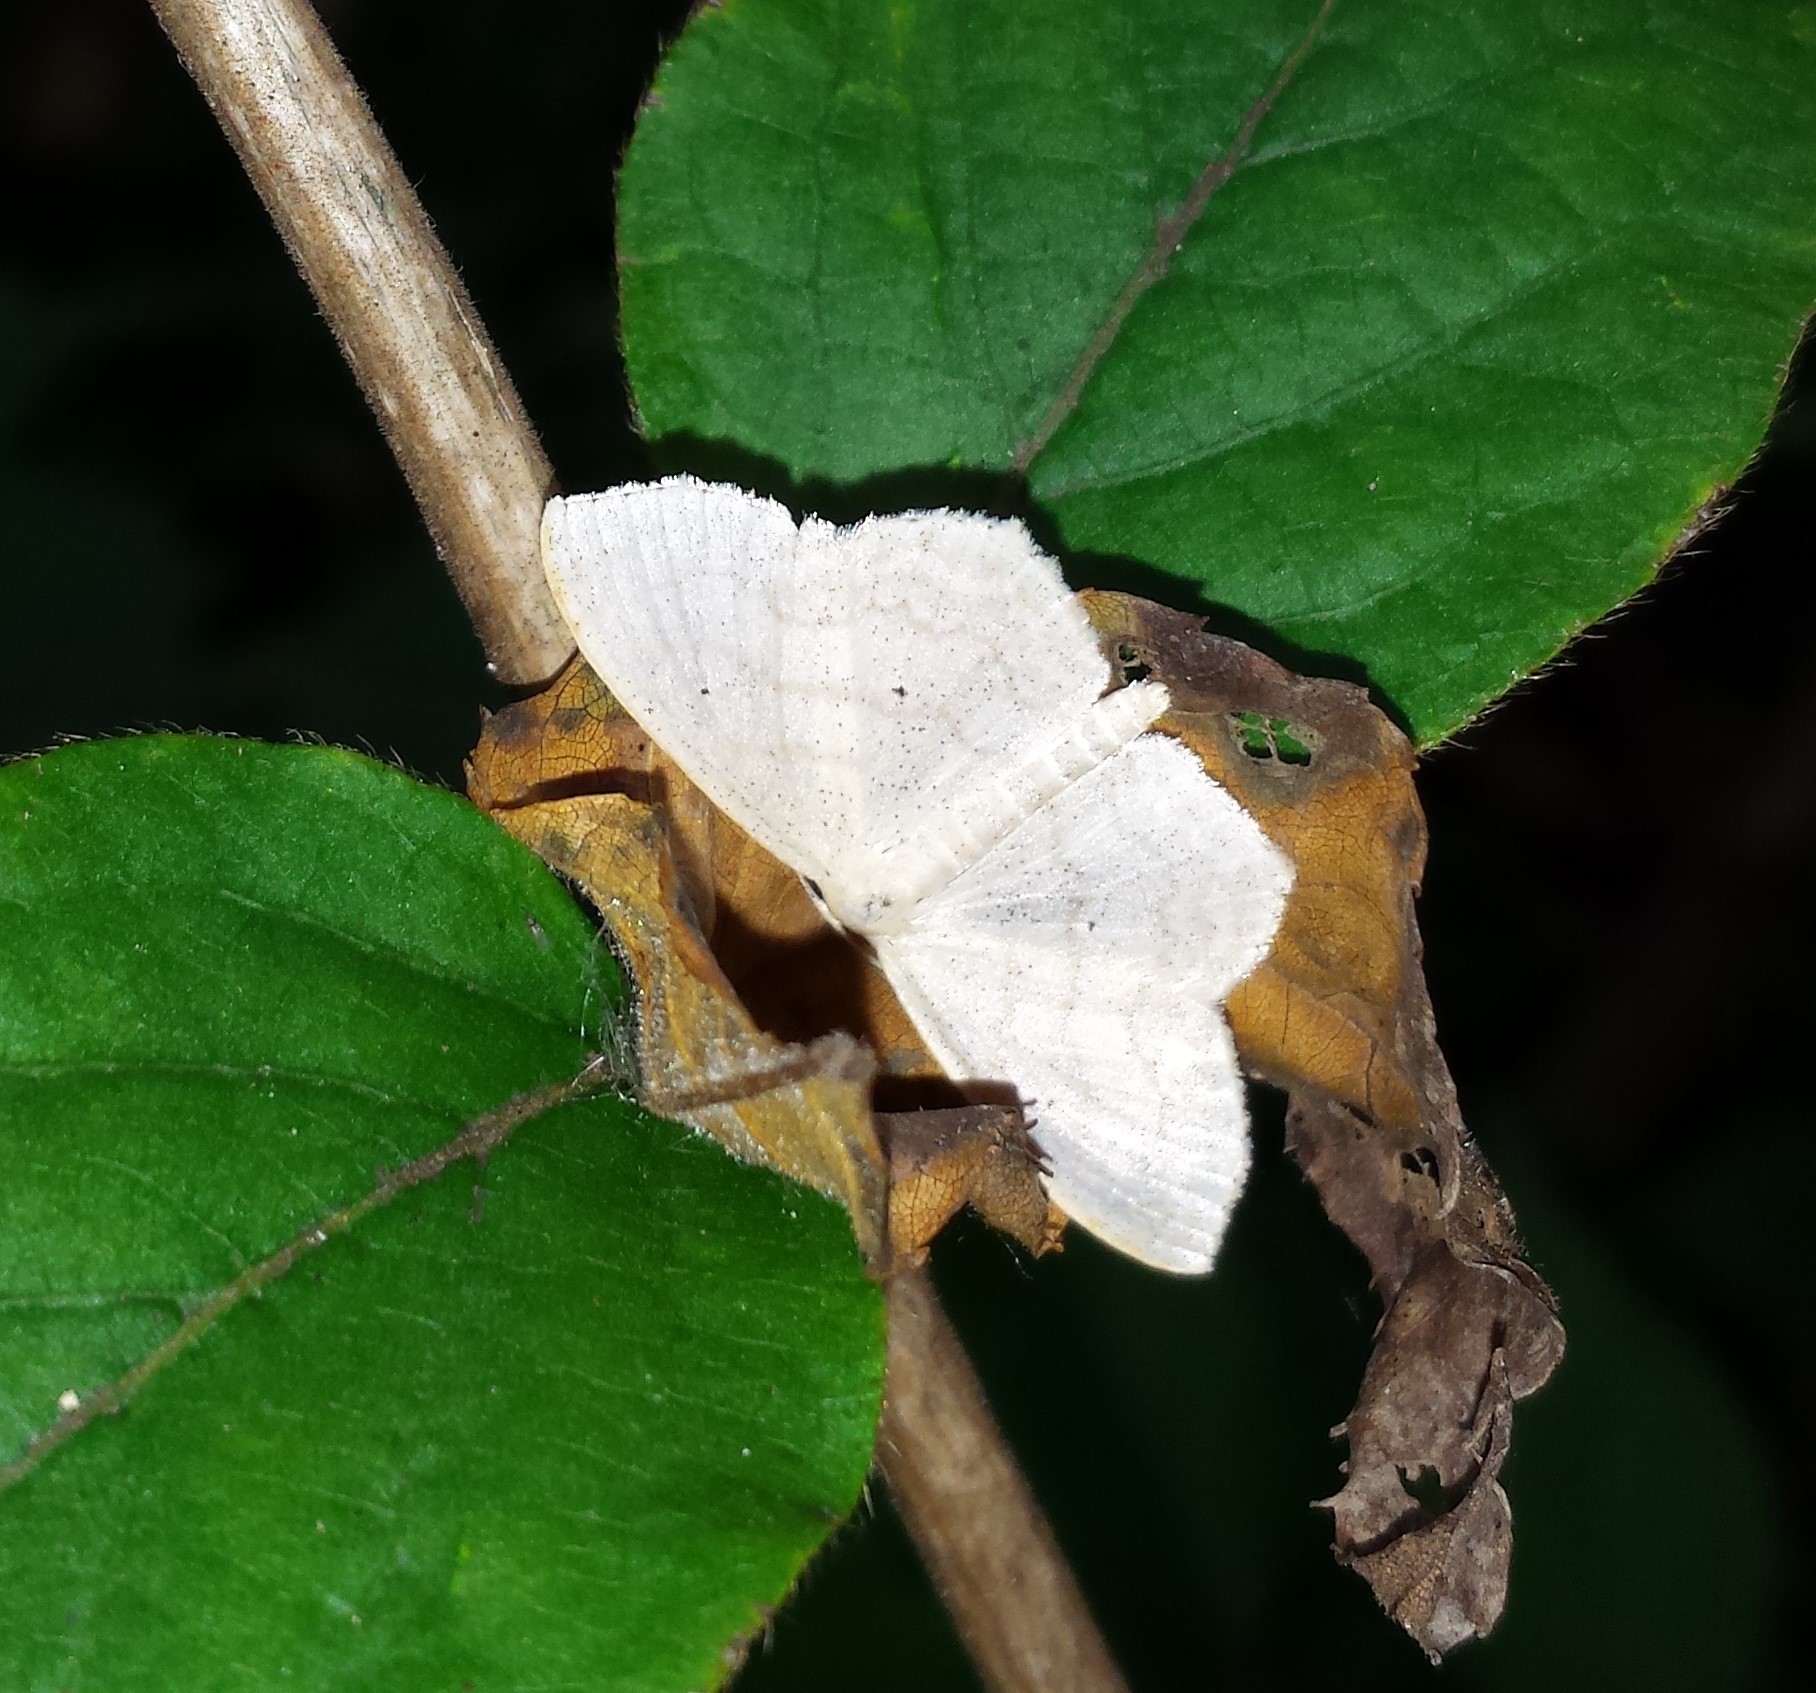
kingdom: Animalia
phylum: Arthropoda
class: Insecta
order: Lepidoptera
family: Geometridae
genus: Scopula
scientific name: Scopula limboundata
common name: Large lace border
